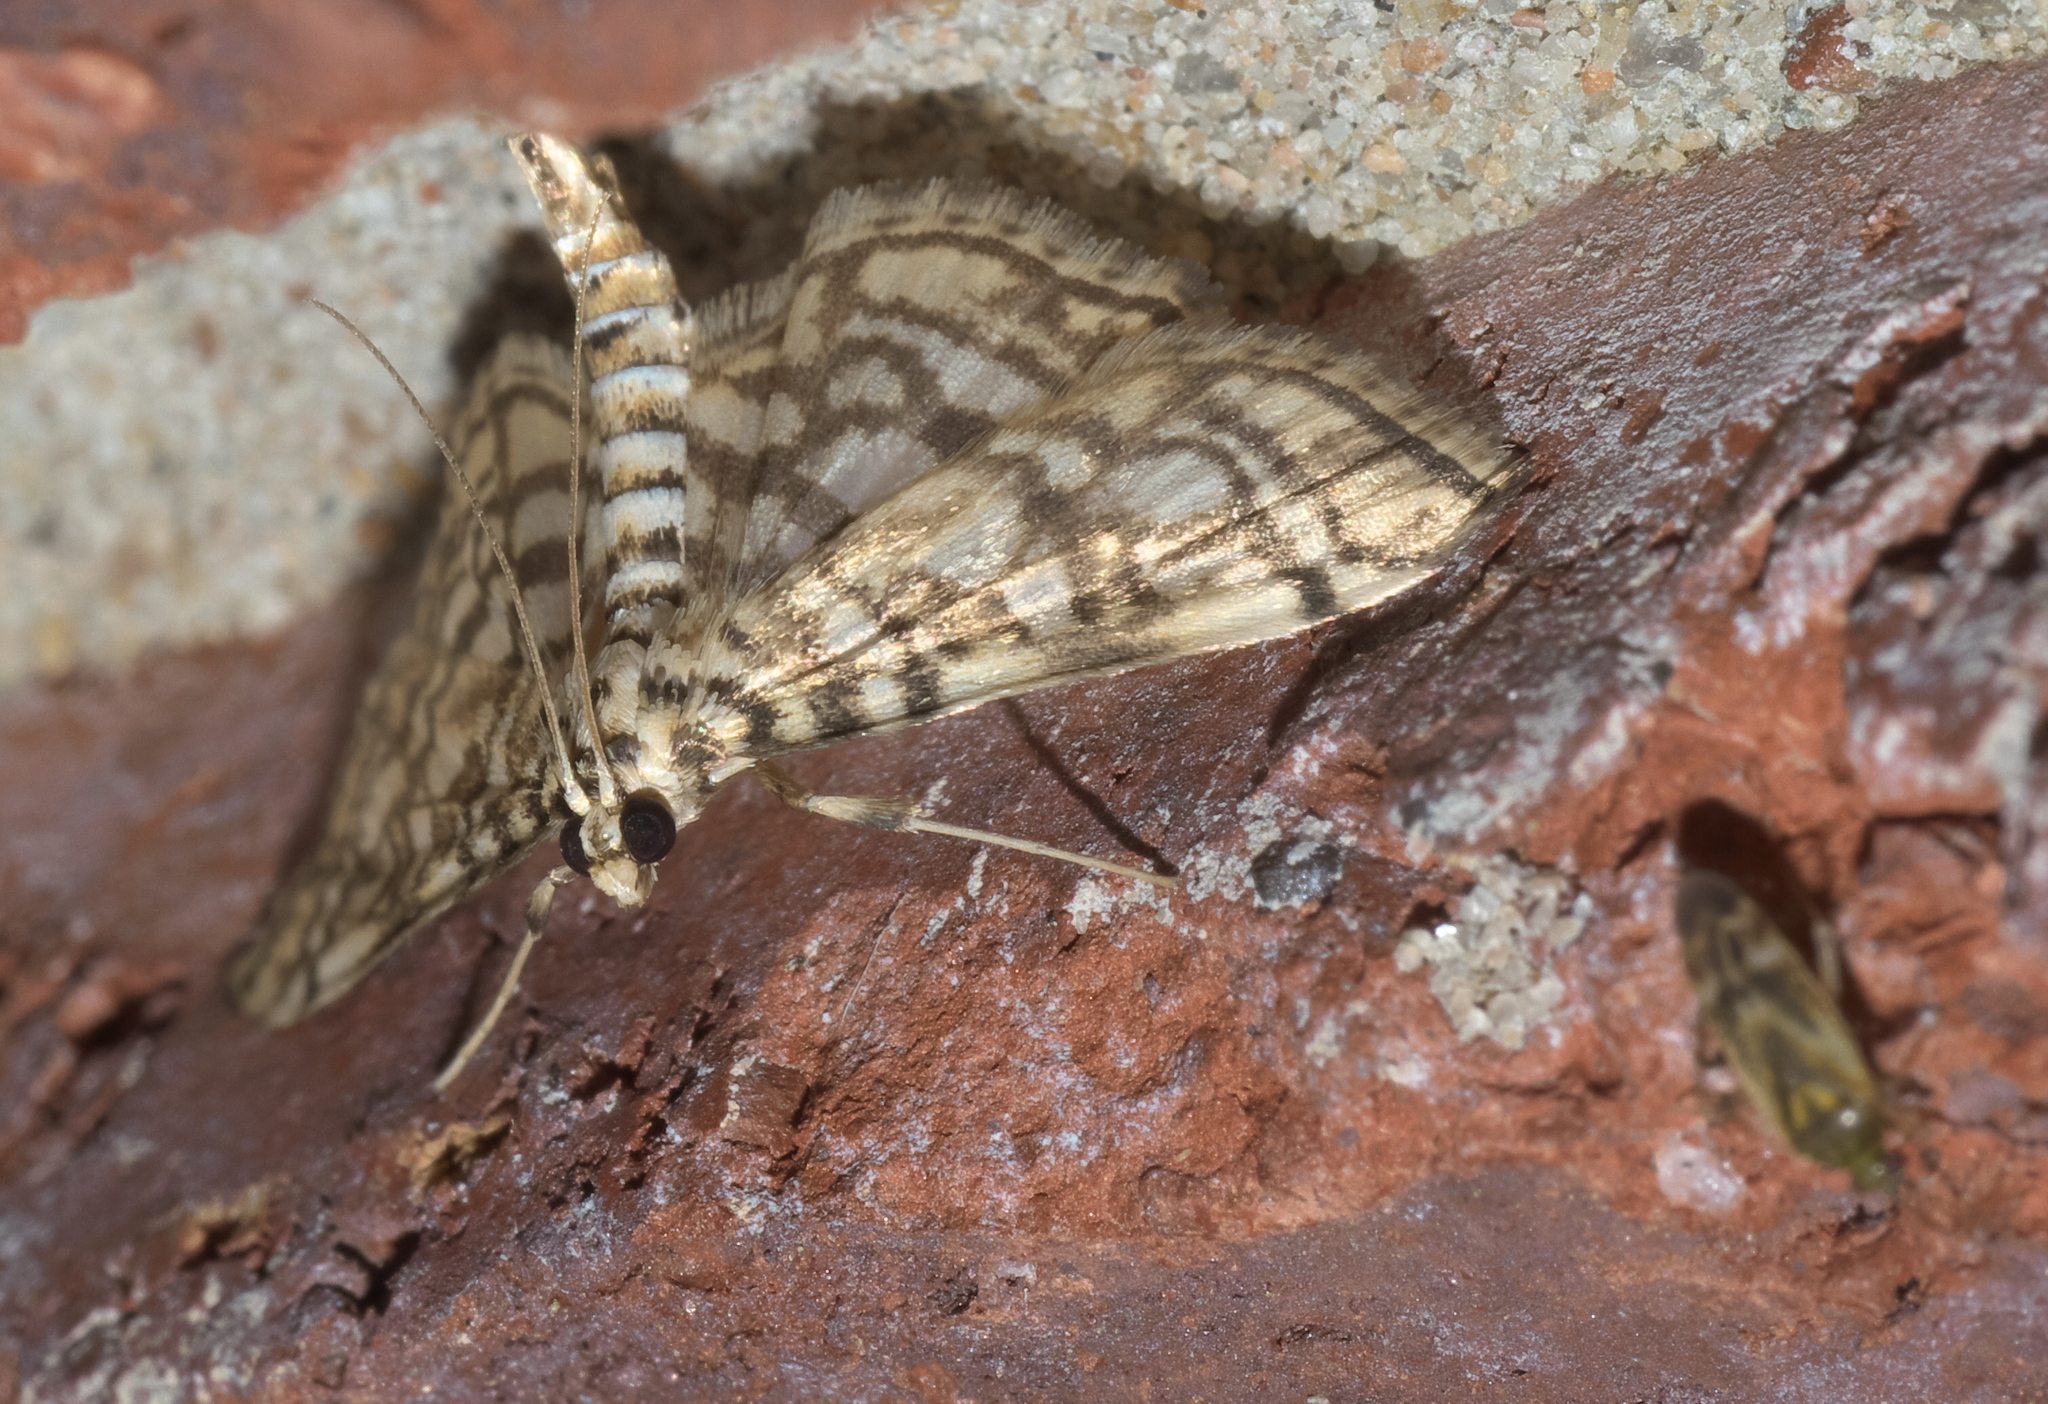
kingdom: Animalia
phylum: Arthropoda
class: Insecta
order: Lepidoptera
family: Crambidae
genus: Lygropia
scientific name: Lygropia rivulalis
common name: Bog lygropia moth
